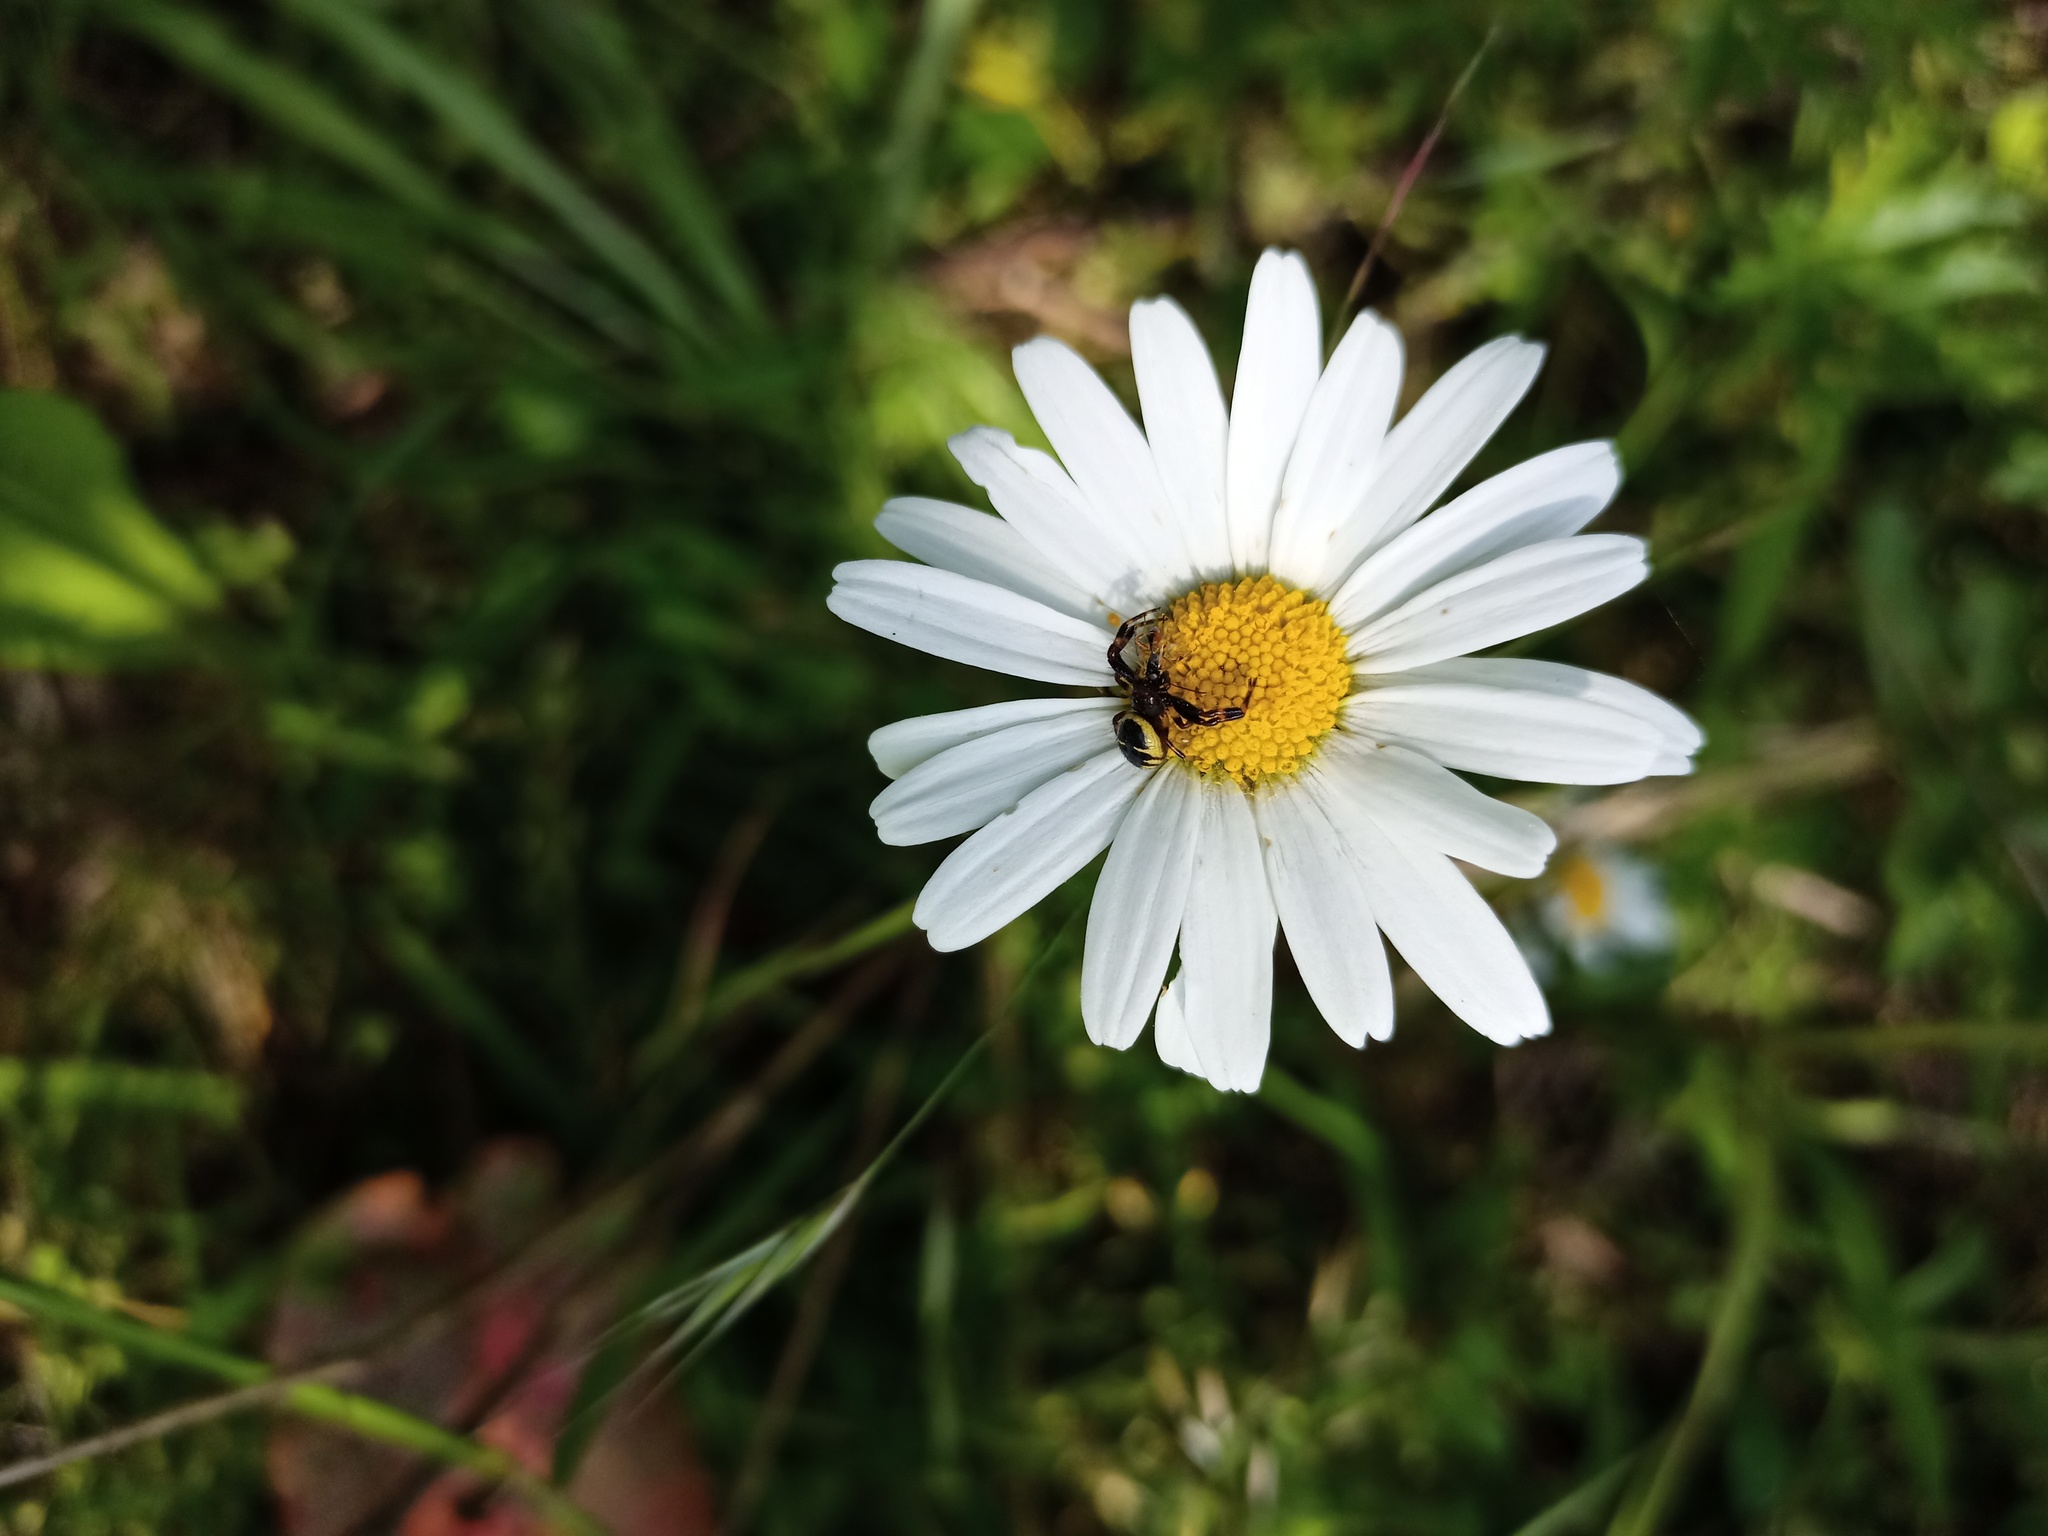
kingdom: Animalia
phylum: Arthropoda
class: Arachnida
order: Araneae
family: Thomisidae
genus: Synema
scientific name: Synema globosum
